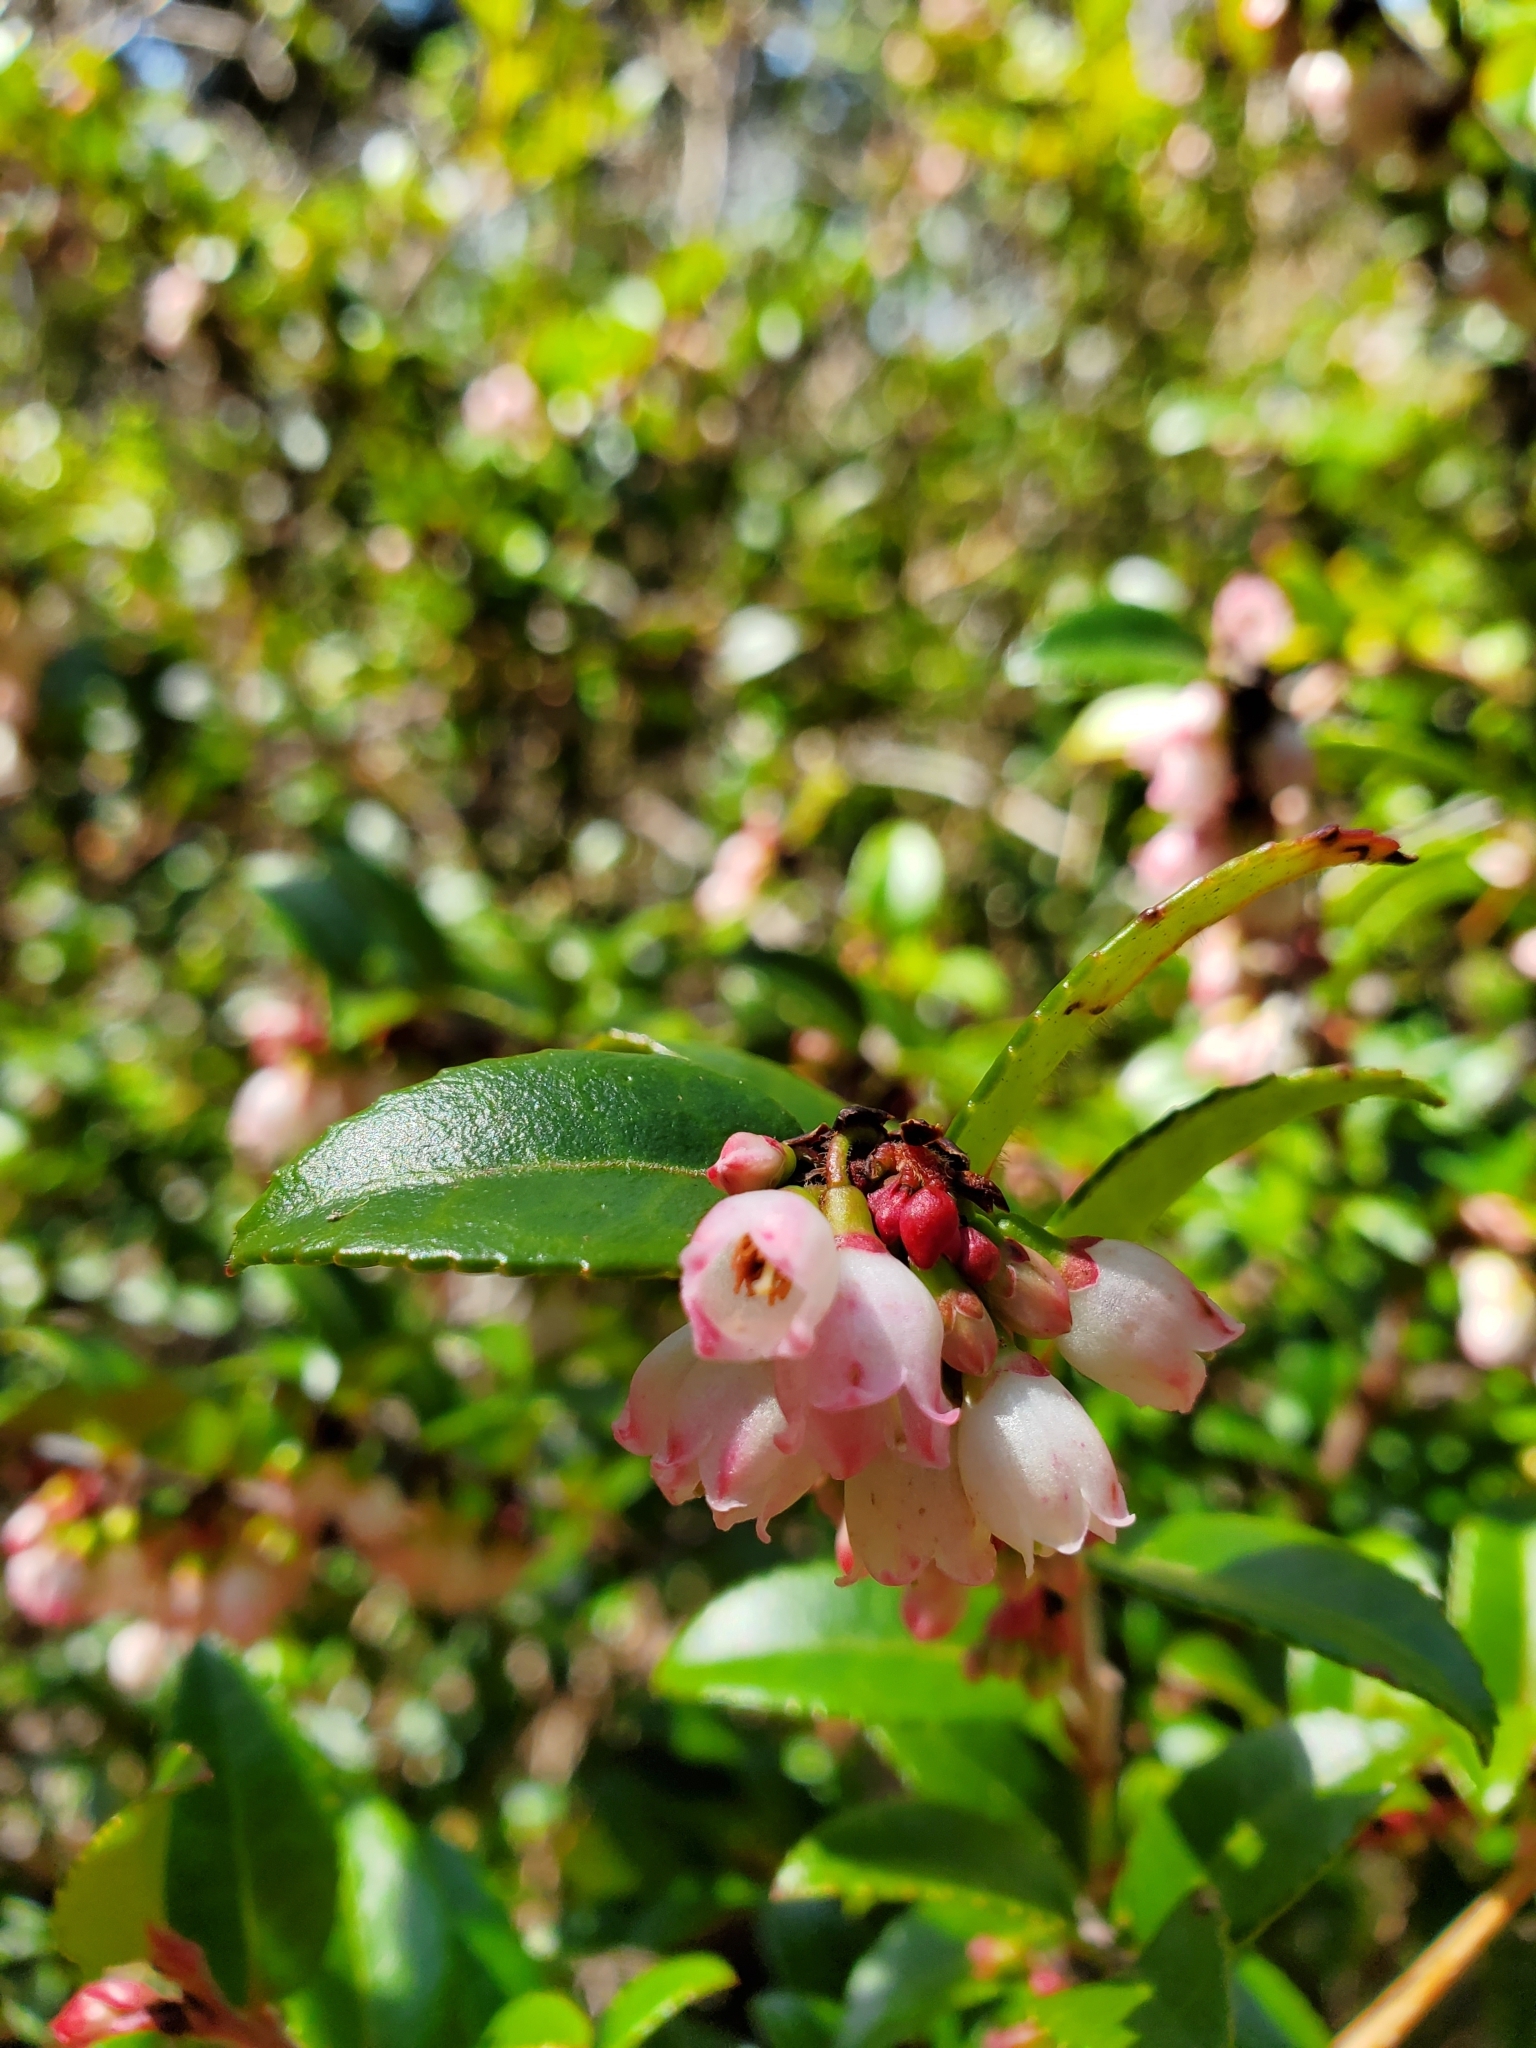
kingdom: Plantae
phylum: Tracheophyta
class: Magnoliopsida
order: Ericales
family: Ericaceae
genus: Vaccinium
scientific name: Vaccinium ovatum
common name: California-huckleberry
